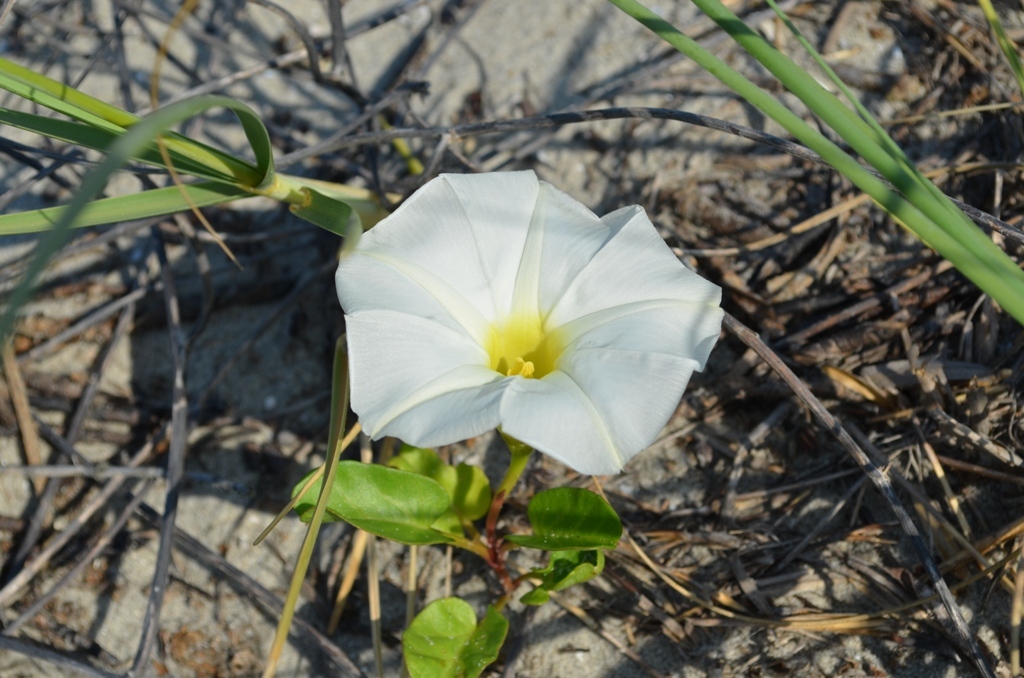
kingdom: Plantae
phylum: Tracheophyta
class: Magnoliopsida
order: Solanales
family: Convolvulaceae
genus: Ipomoea
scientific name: Ipomoea imperati
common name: Fiddle-leaf morning-glory
